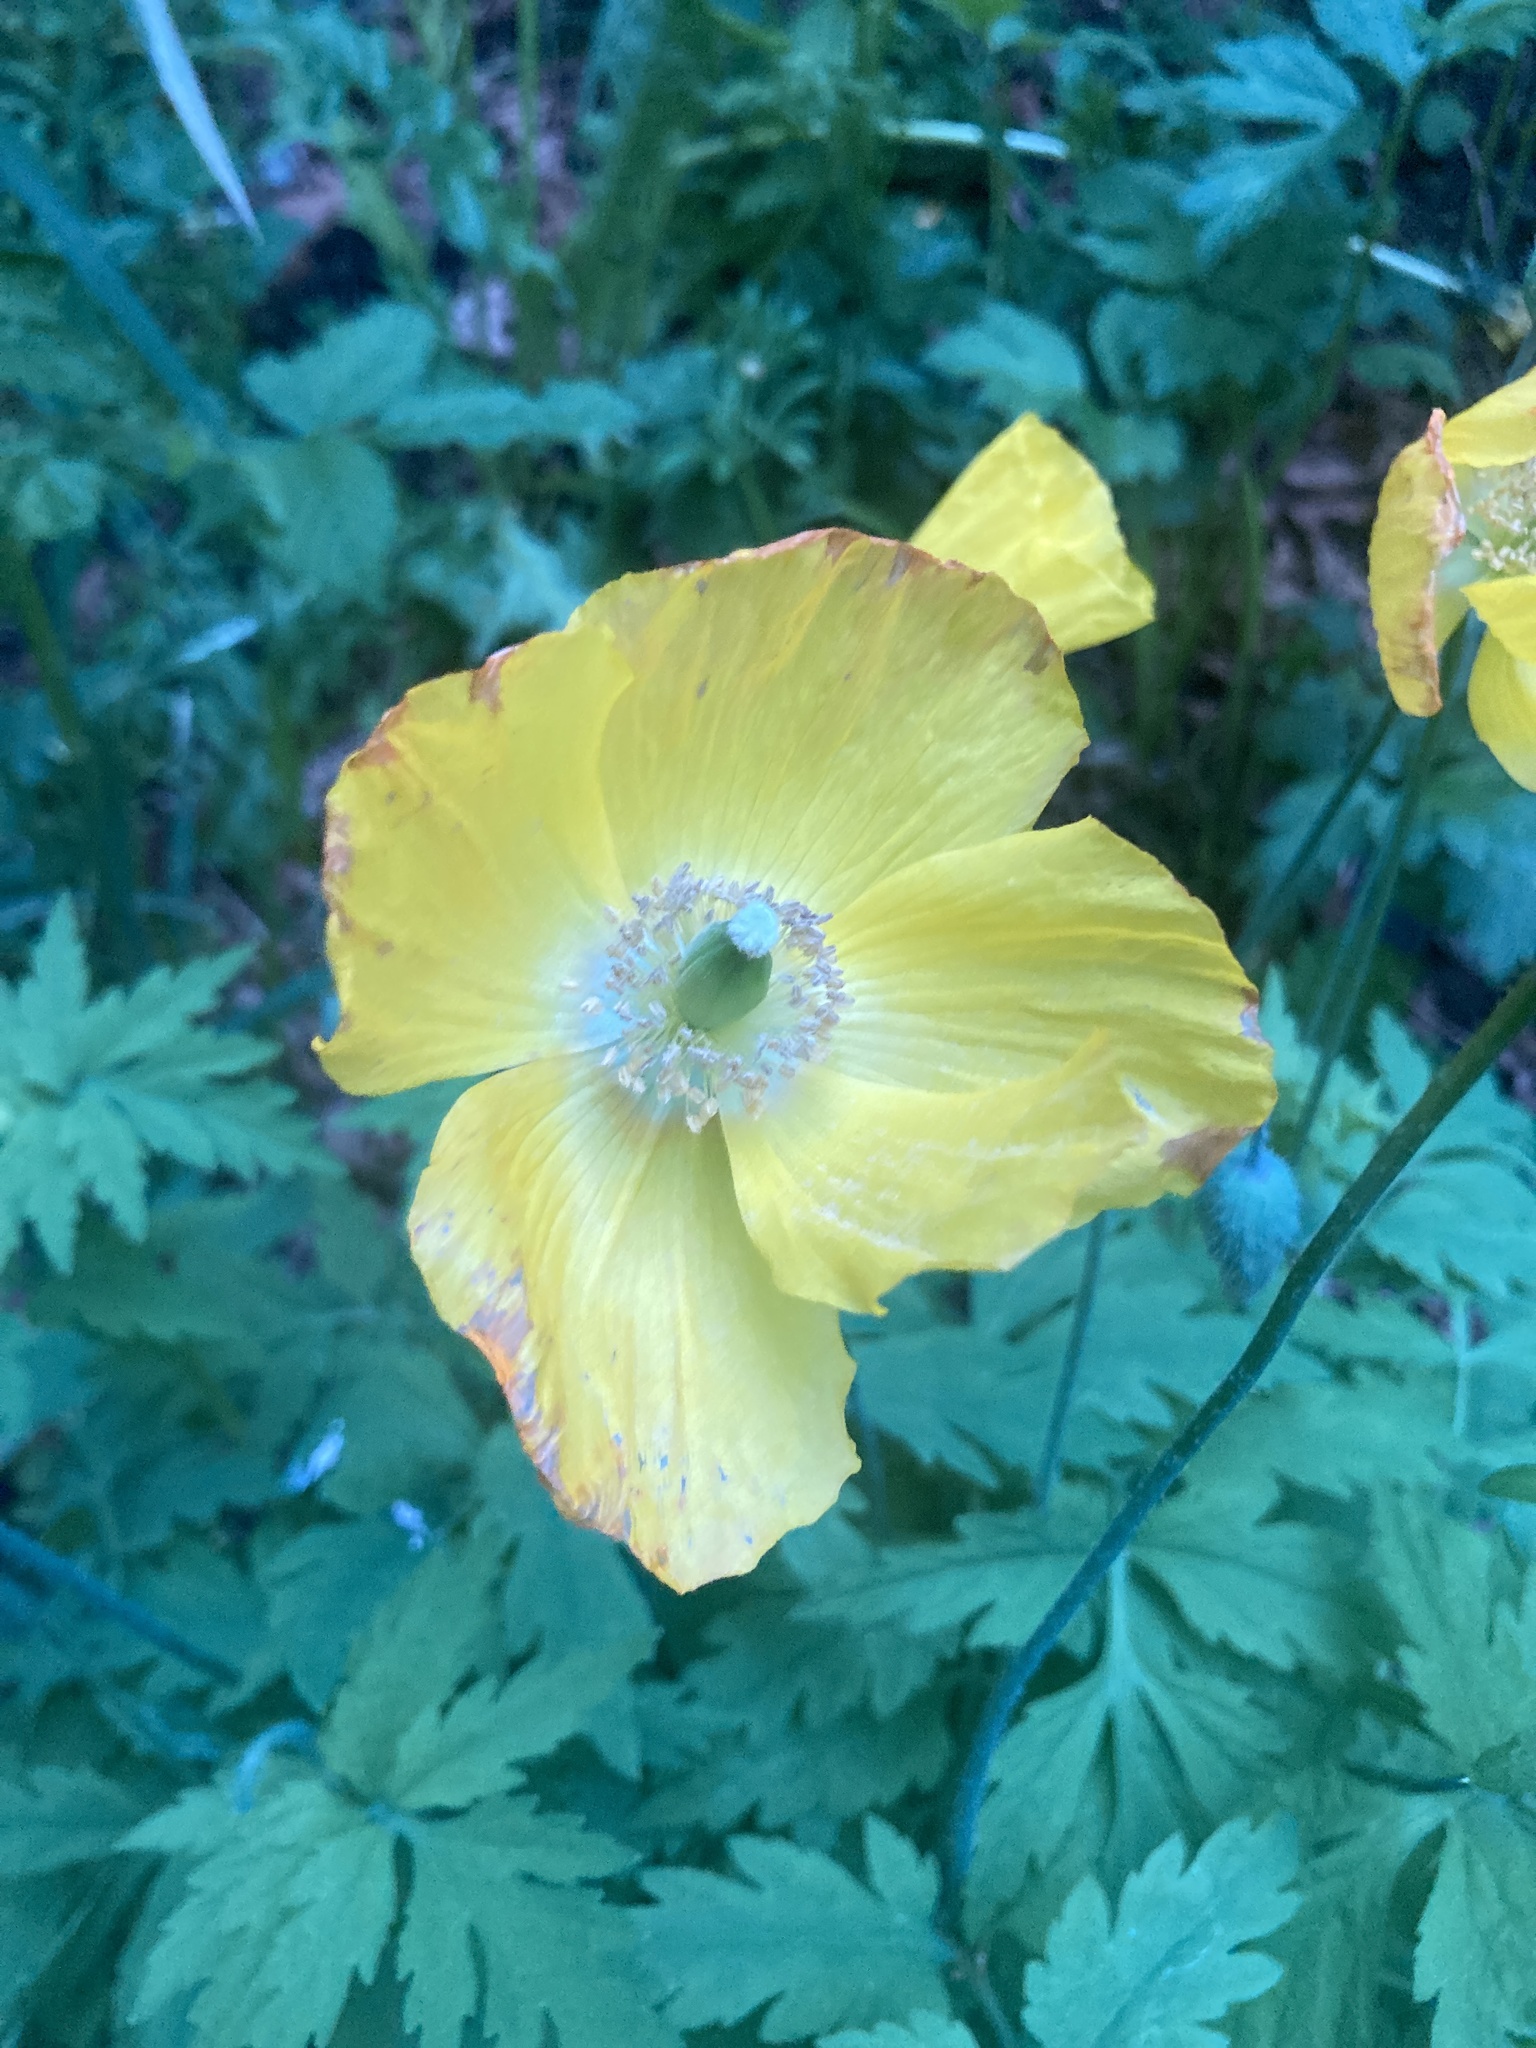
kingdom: Plantae
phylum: Tracheophyta
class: Magnoliopsida
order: Ranunculales
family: Papaveraceae
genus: Papaver
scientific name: Papaver cambricum
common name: Poppy
